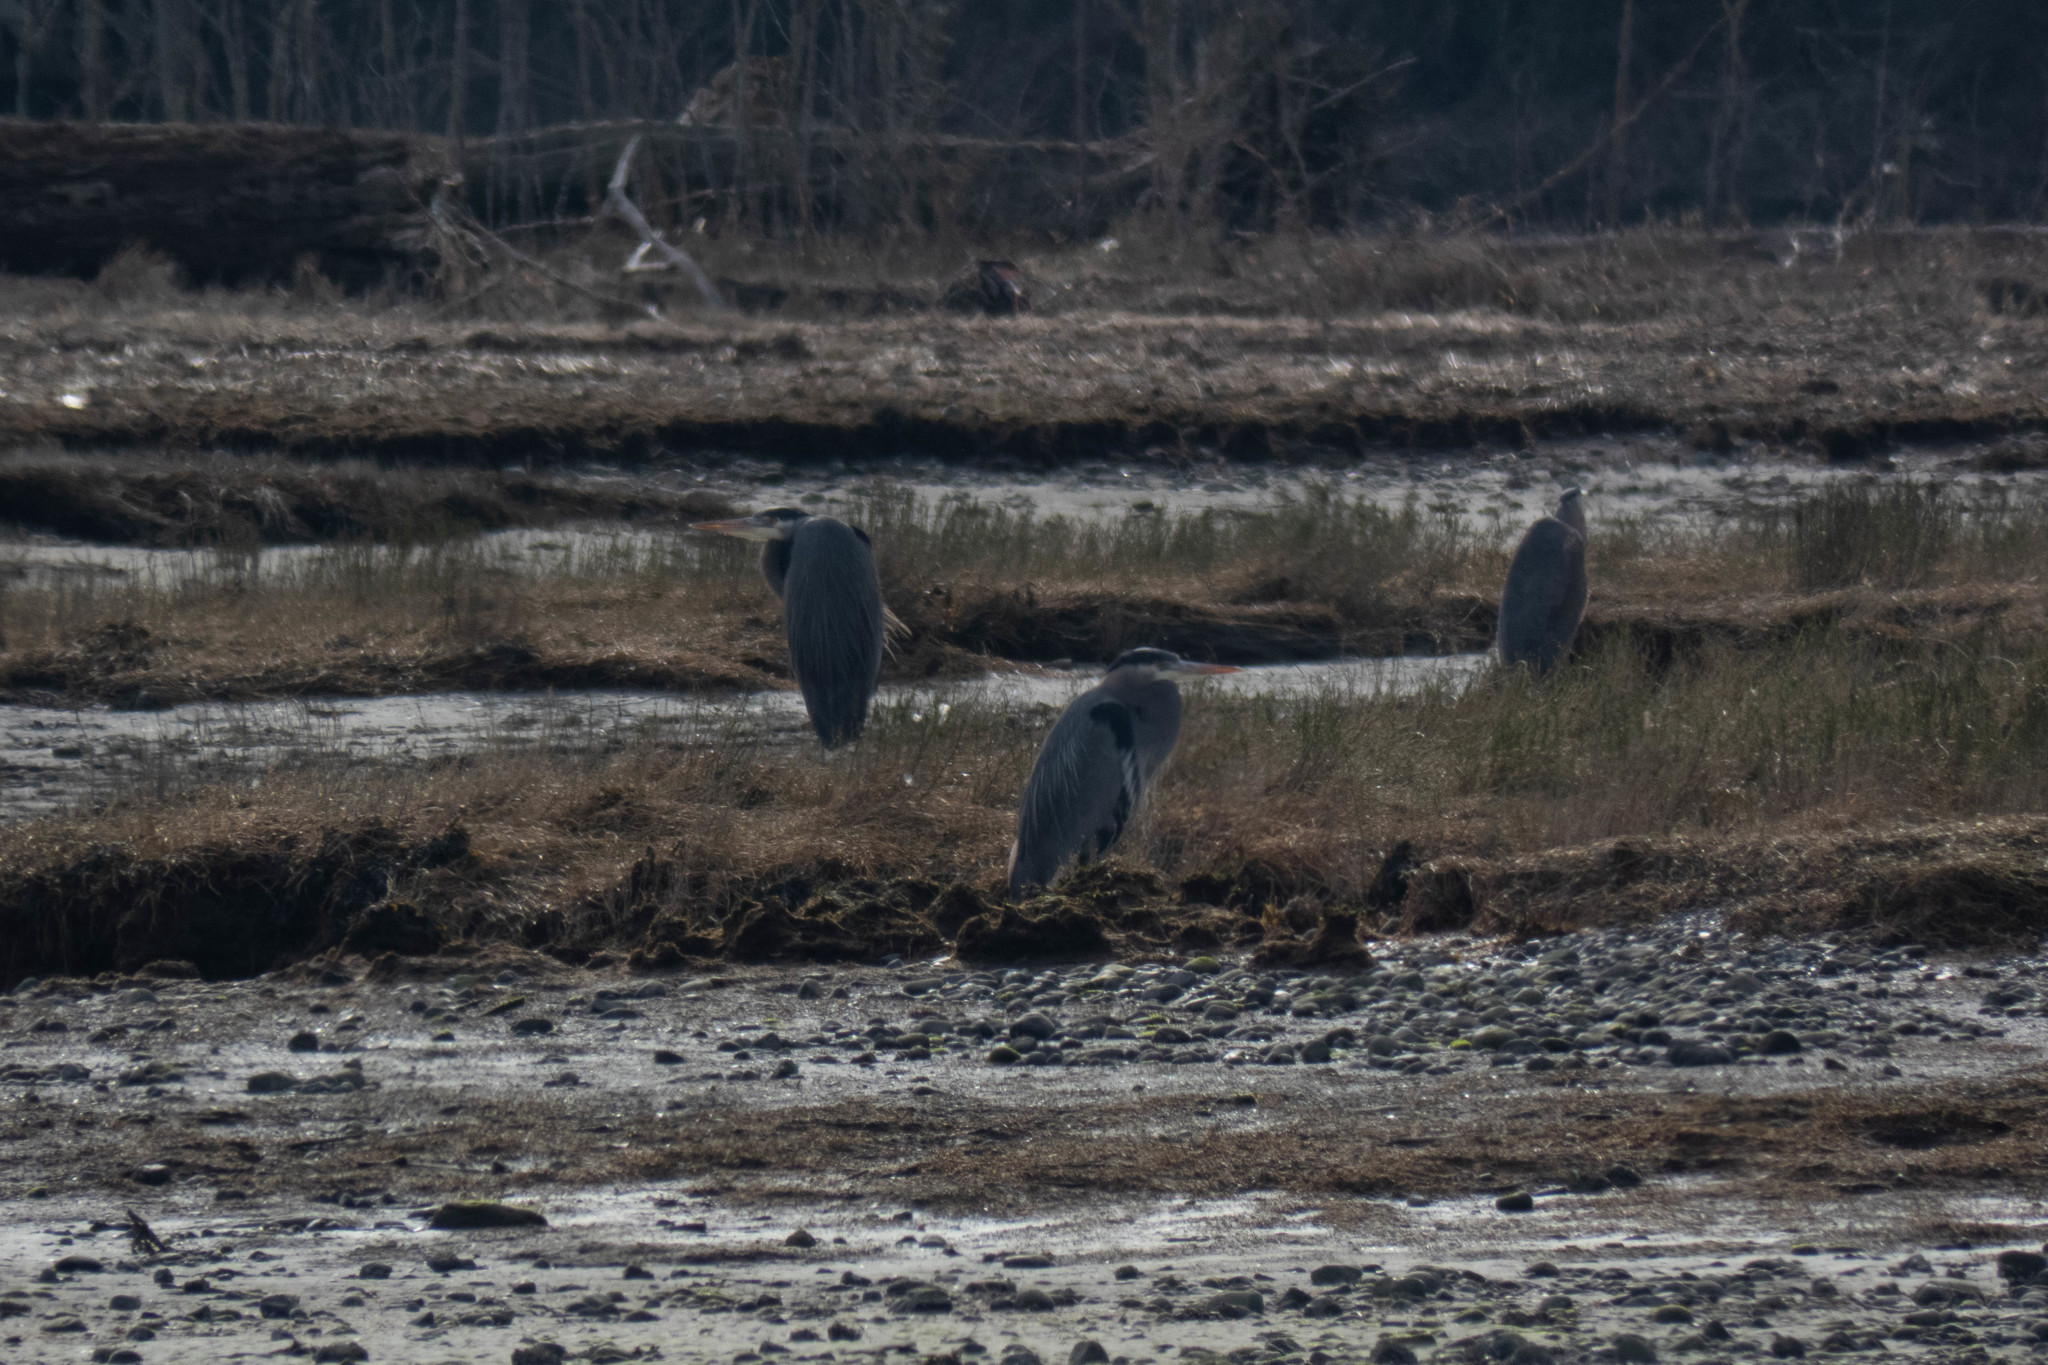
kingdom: Animalia
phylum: Chordata
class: Aves
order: Pelecaniformes
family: Ardeidae
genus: Ardea
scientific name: Ardea herodias
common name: Great blue heron
